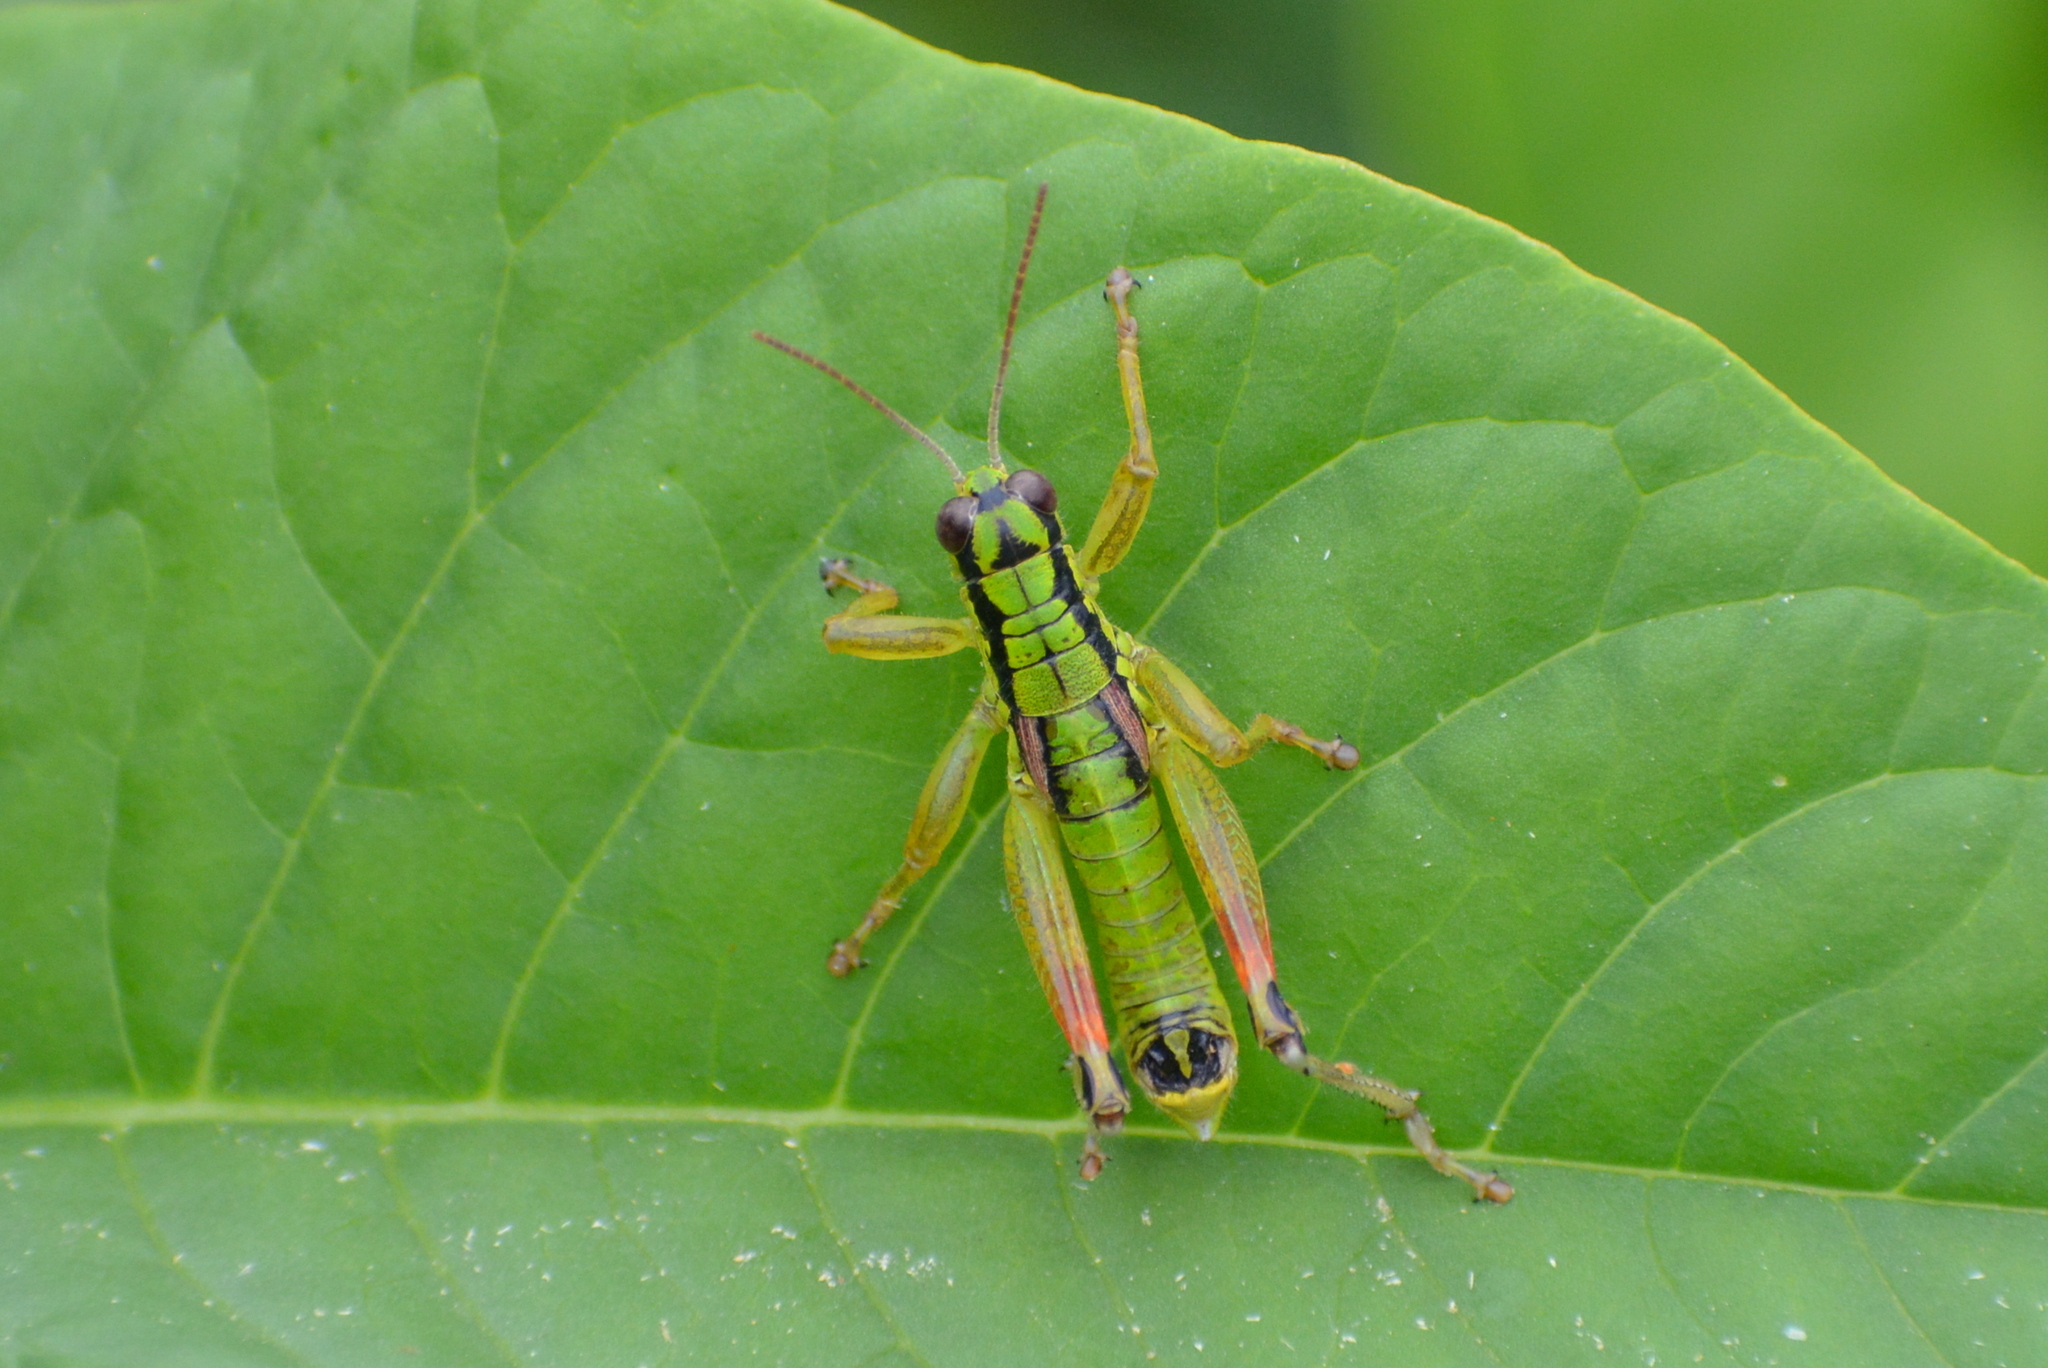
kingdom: Animalia
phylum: Arthropoda
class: Insecta
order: Orthoptera
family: Acrididae
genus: Pseudopodisma
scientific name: Pseudopodisma fieberi
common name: Fieber's mountain grasshopper
